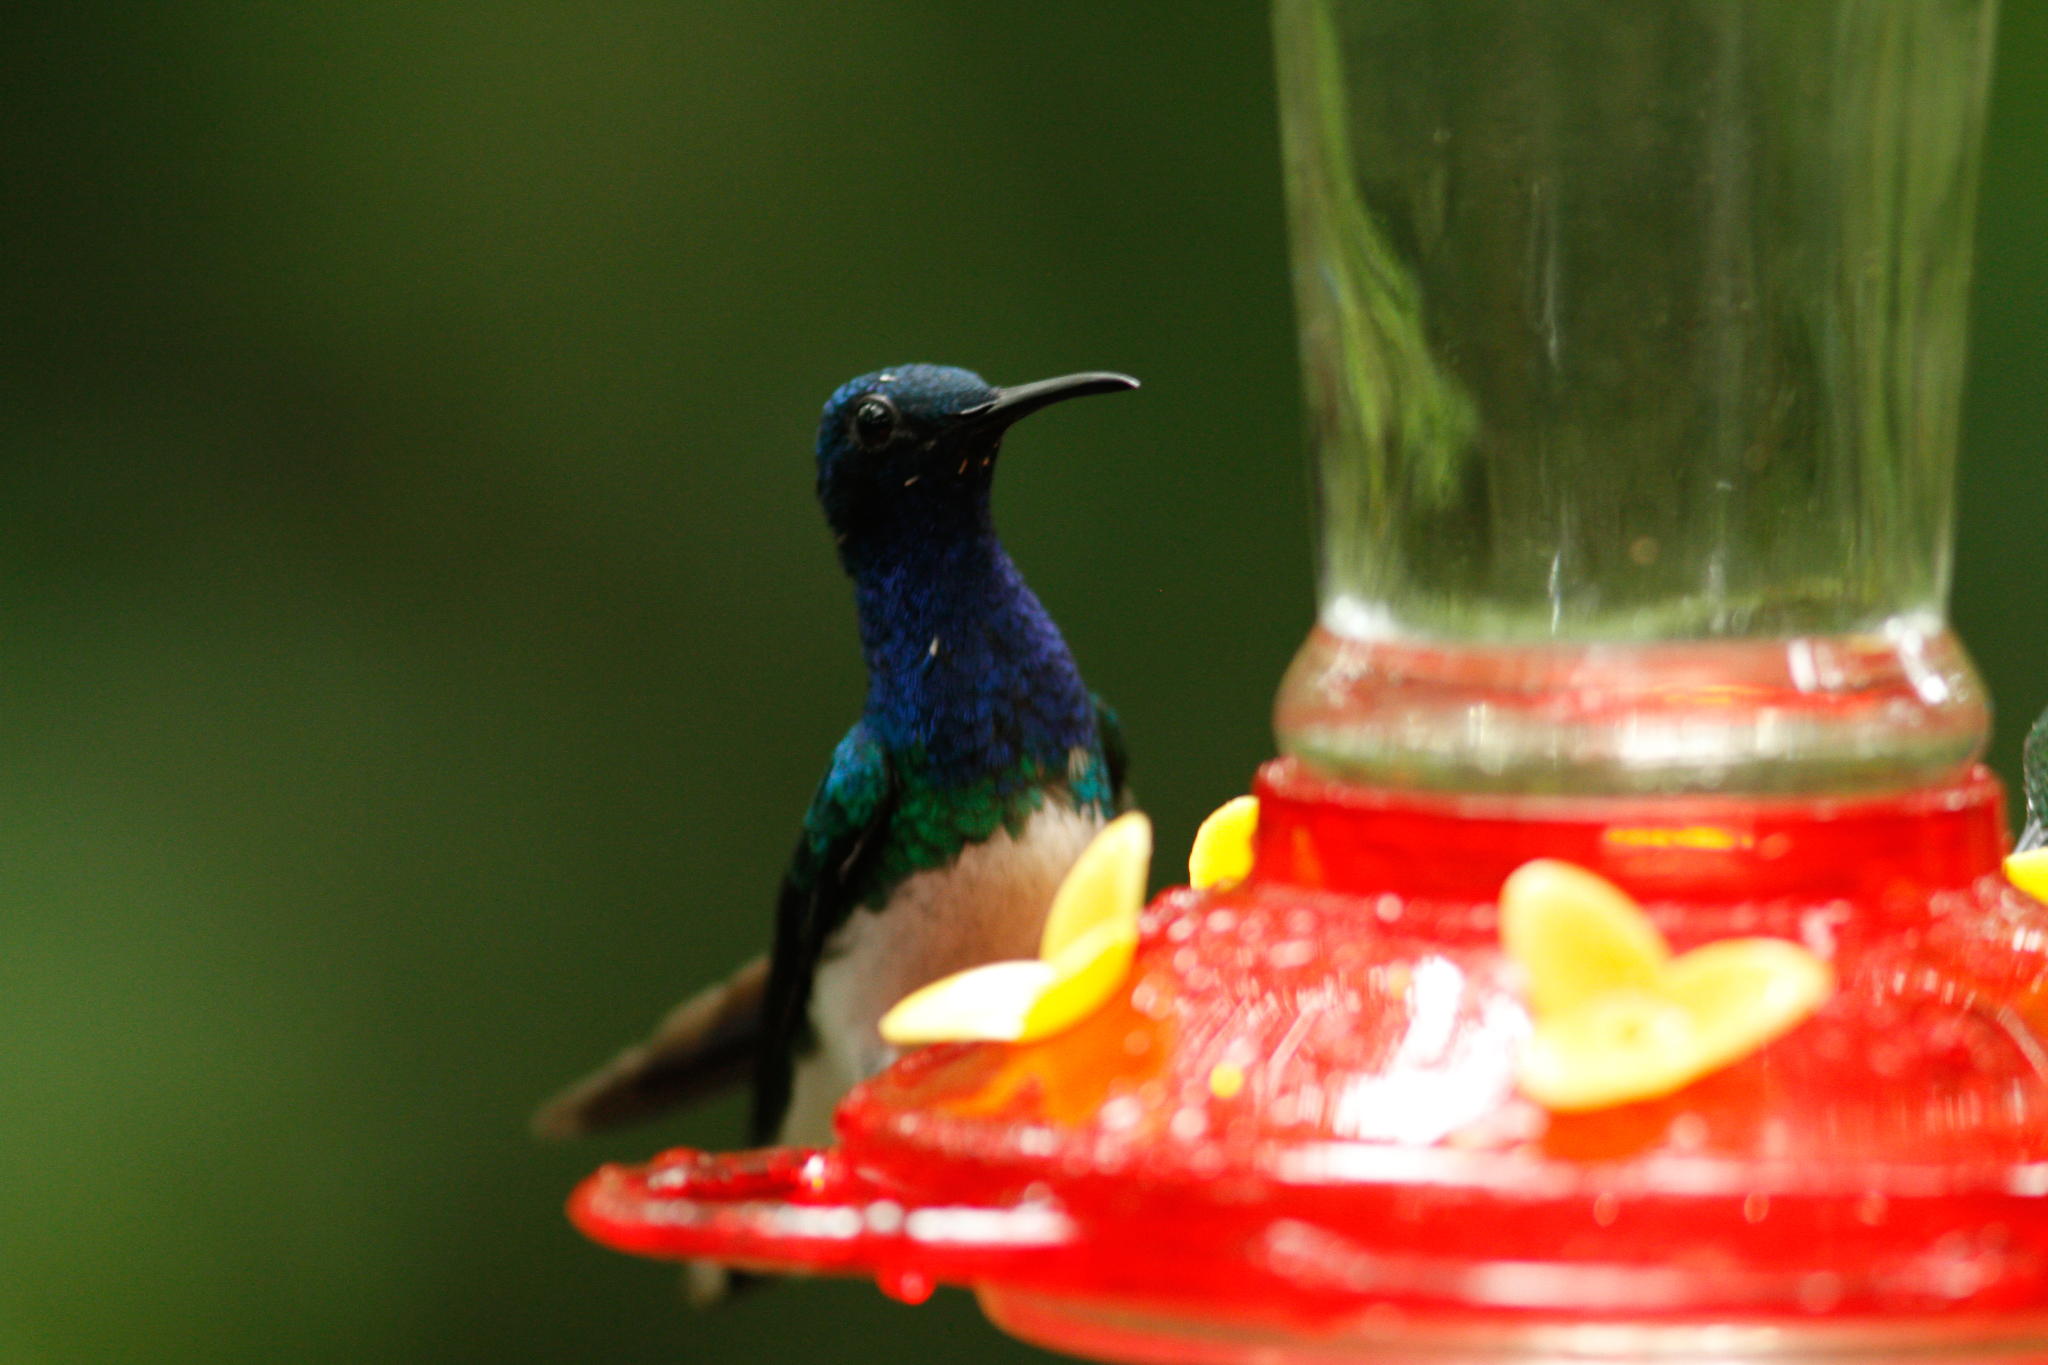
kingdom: Animalia
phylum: Chordata
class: Aves
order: Apodiformes
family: Trochilidae
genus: Florisuga
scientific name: Florisuga mellivora
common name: White-necked jacobin
